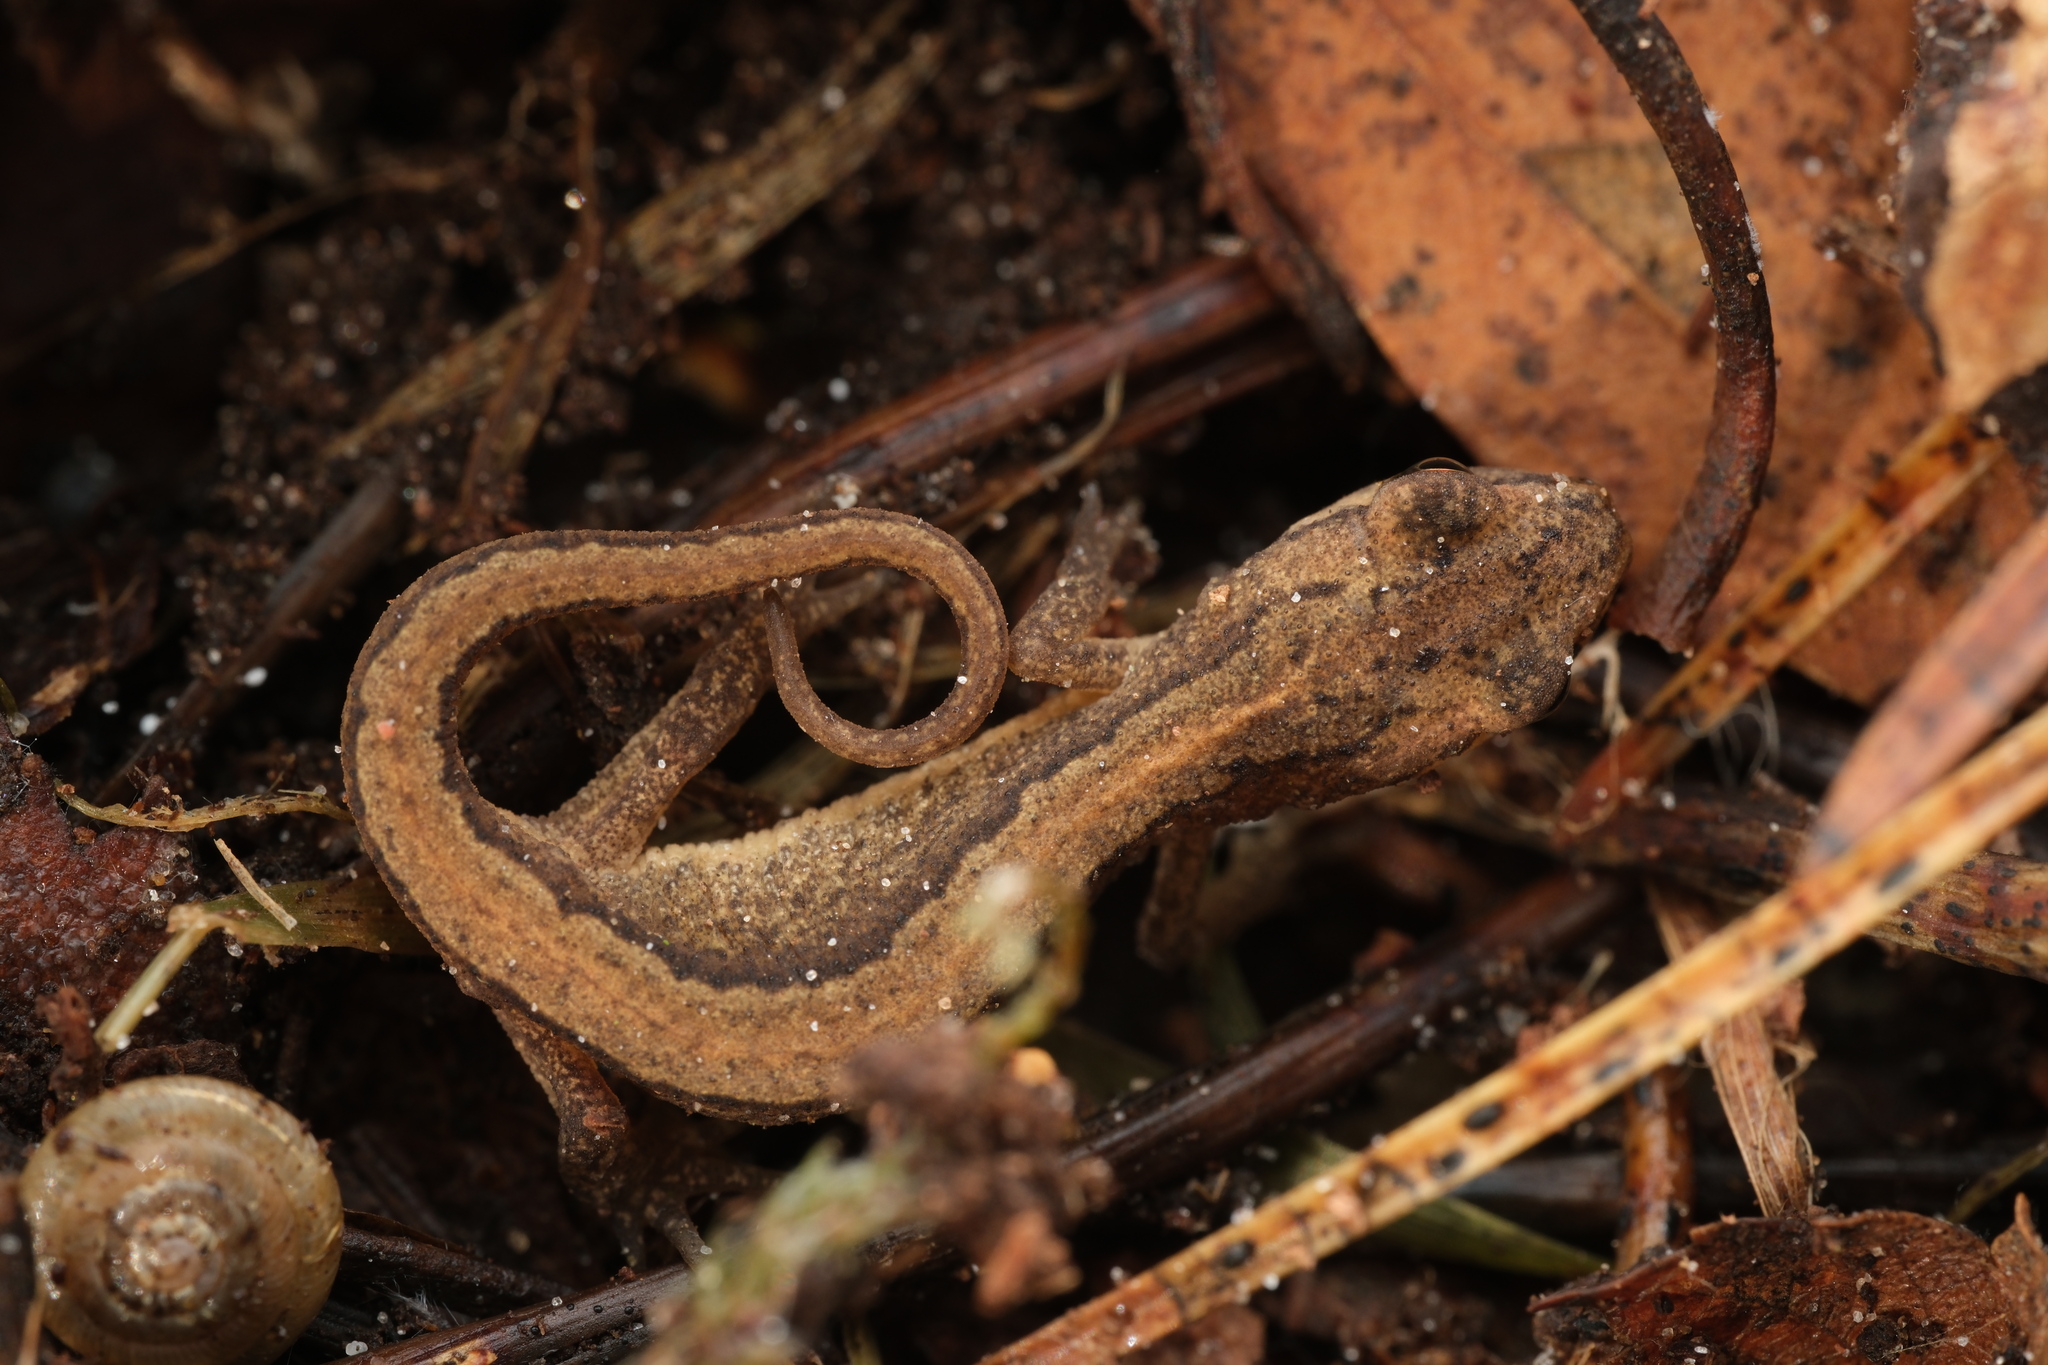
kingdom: Animalia
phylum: Chordata
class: Amphibia
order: Caudata
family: Salamandridae
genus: Lissotriton
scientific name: Lissotriton vulgaris
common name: Smooth newt
